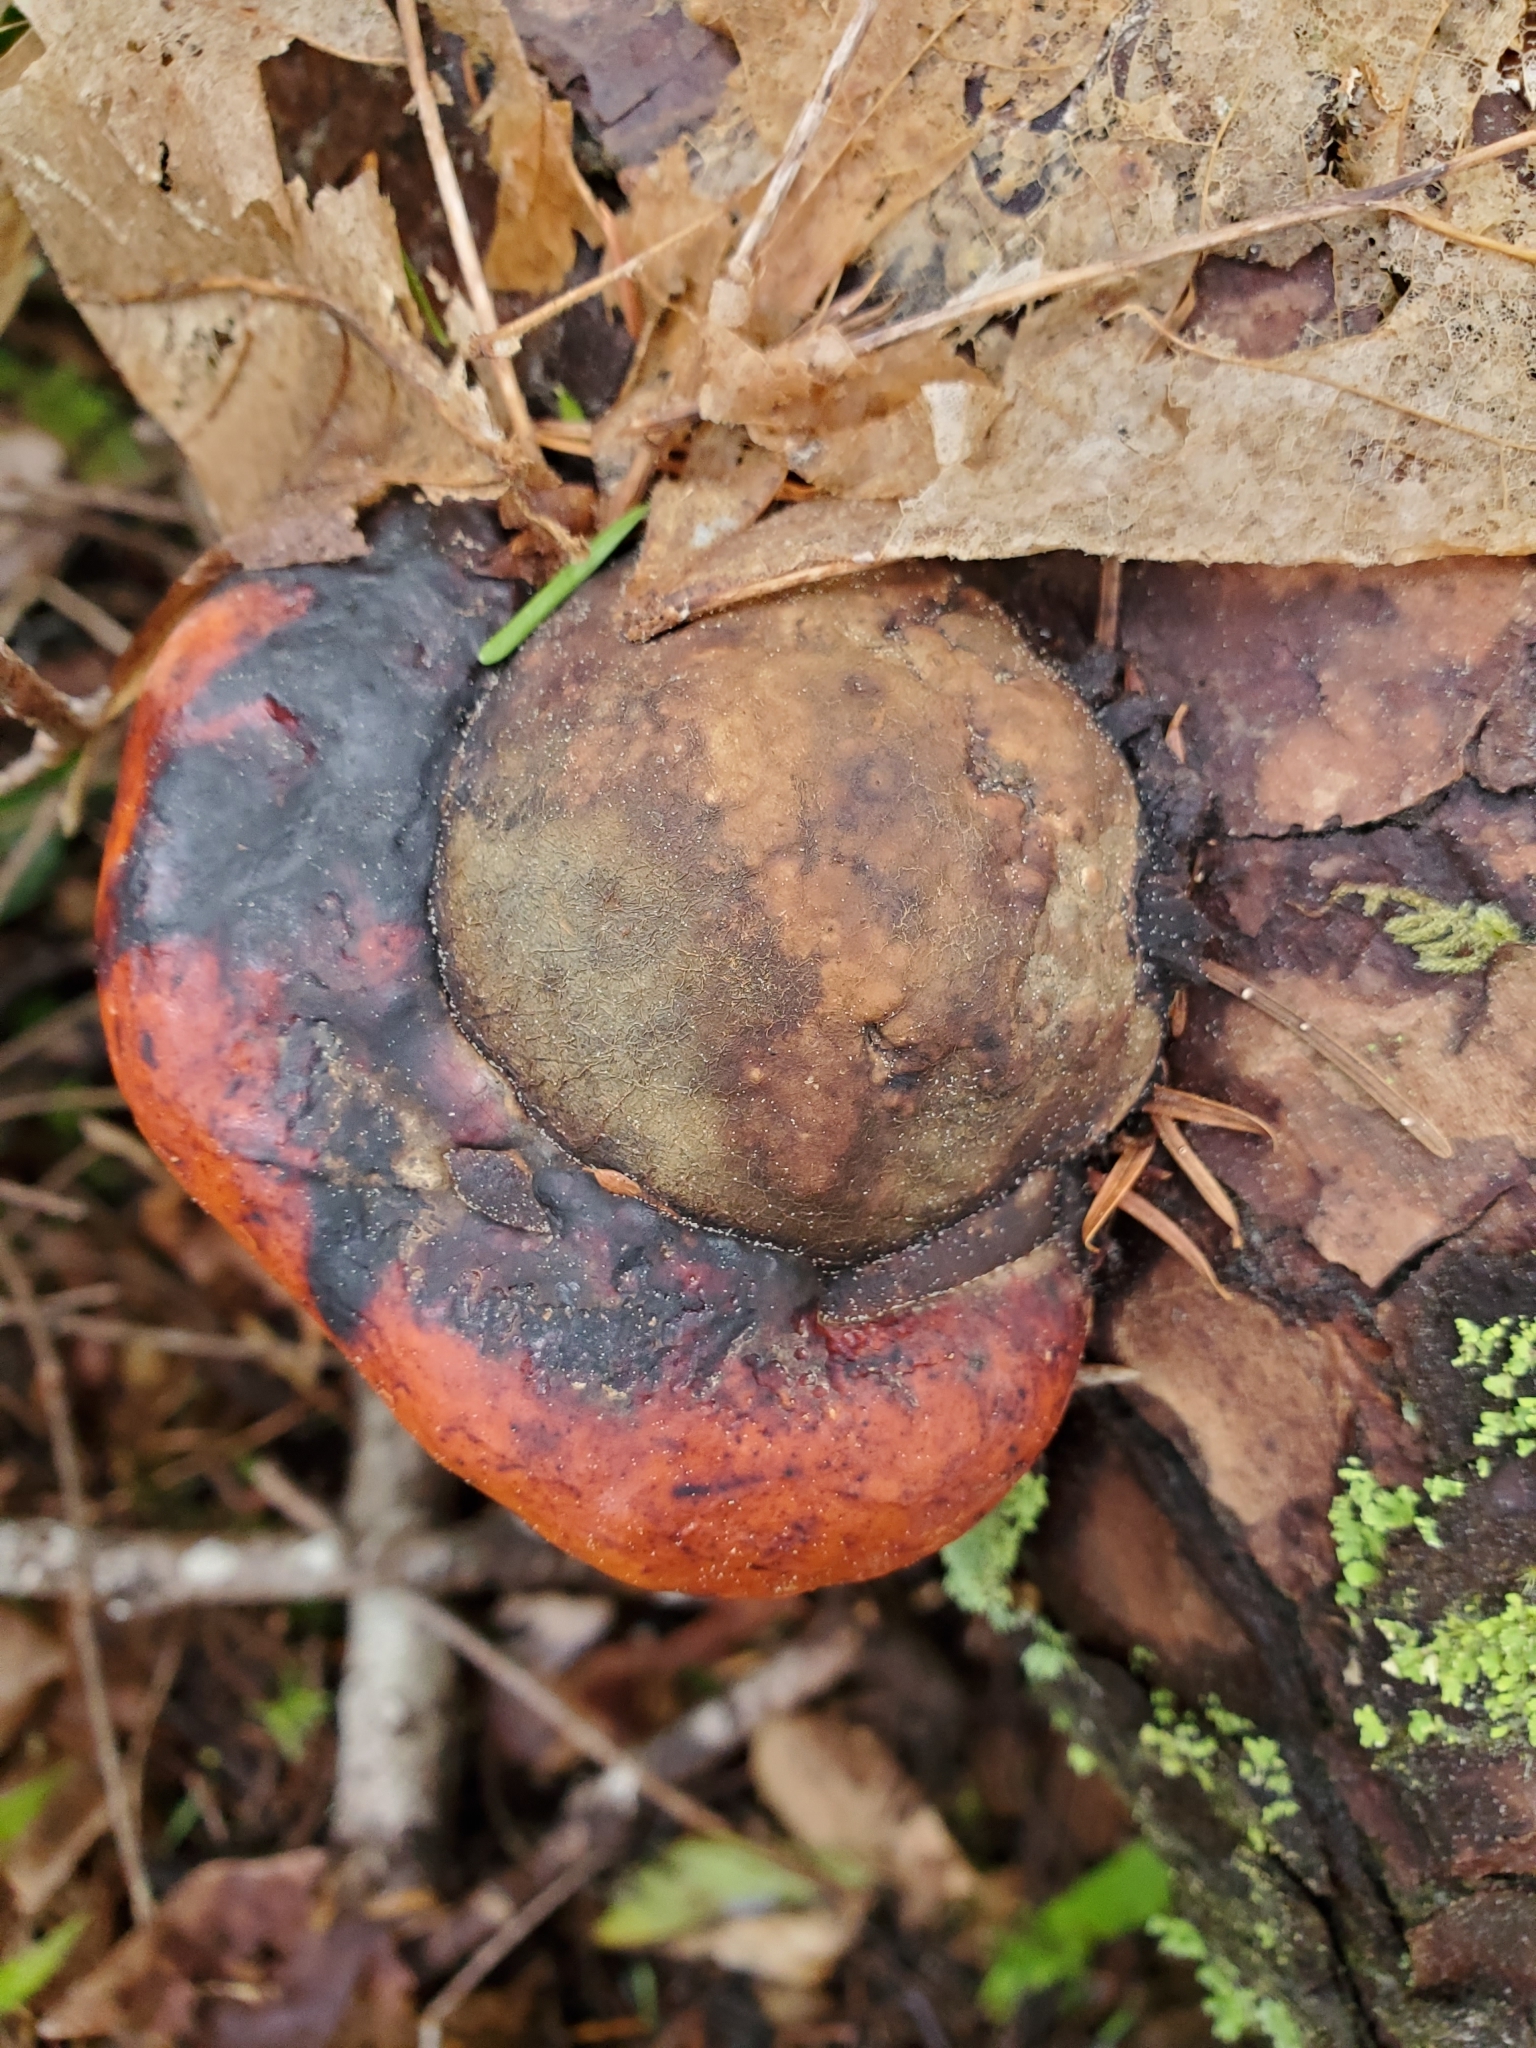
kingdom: Fungi
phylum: Basidiomycota
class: Agaricomycetes
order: Polyporales
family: Fomitopsidaceae
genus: Fomitopsis
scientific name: Fomitopsis mounceae
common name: Northern red belt
